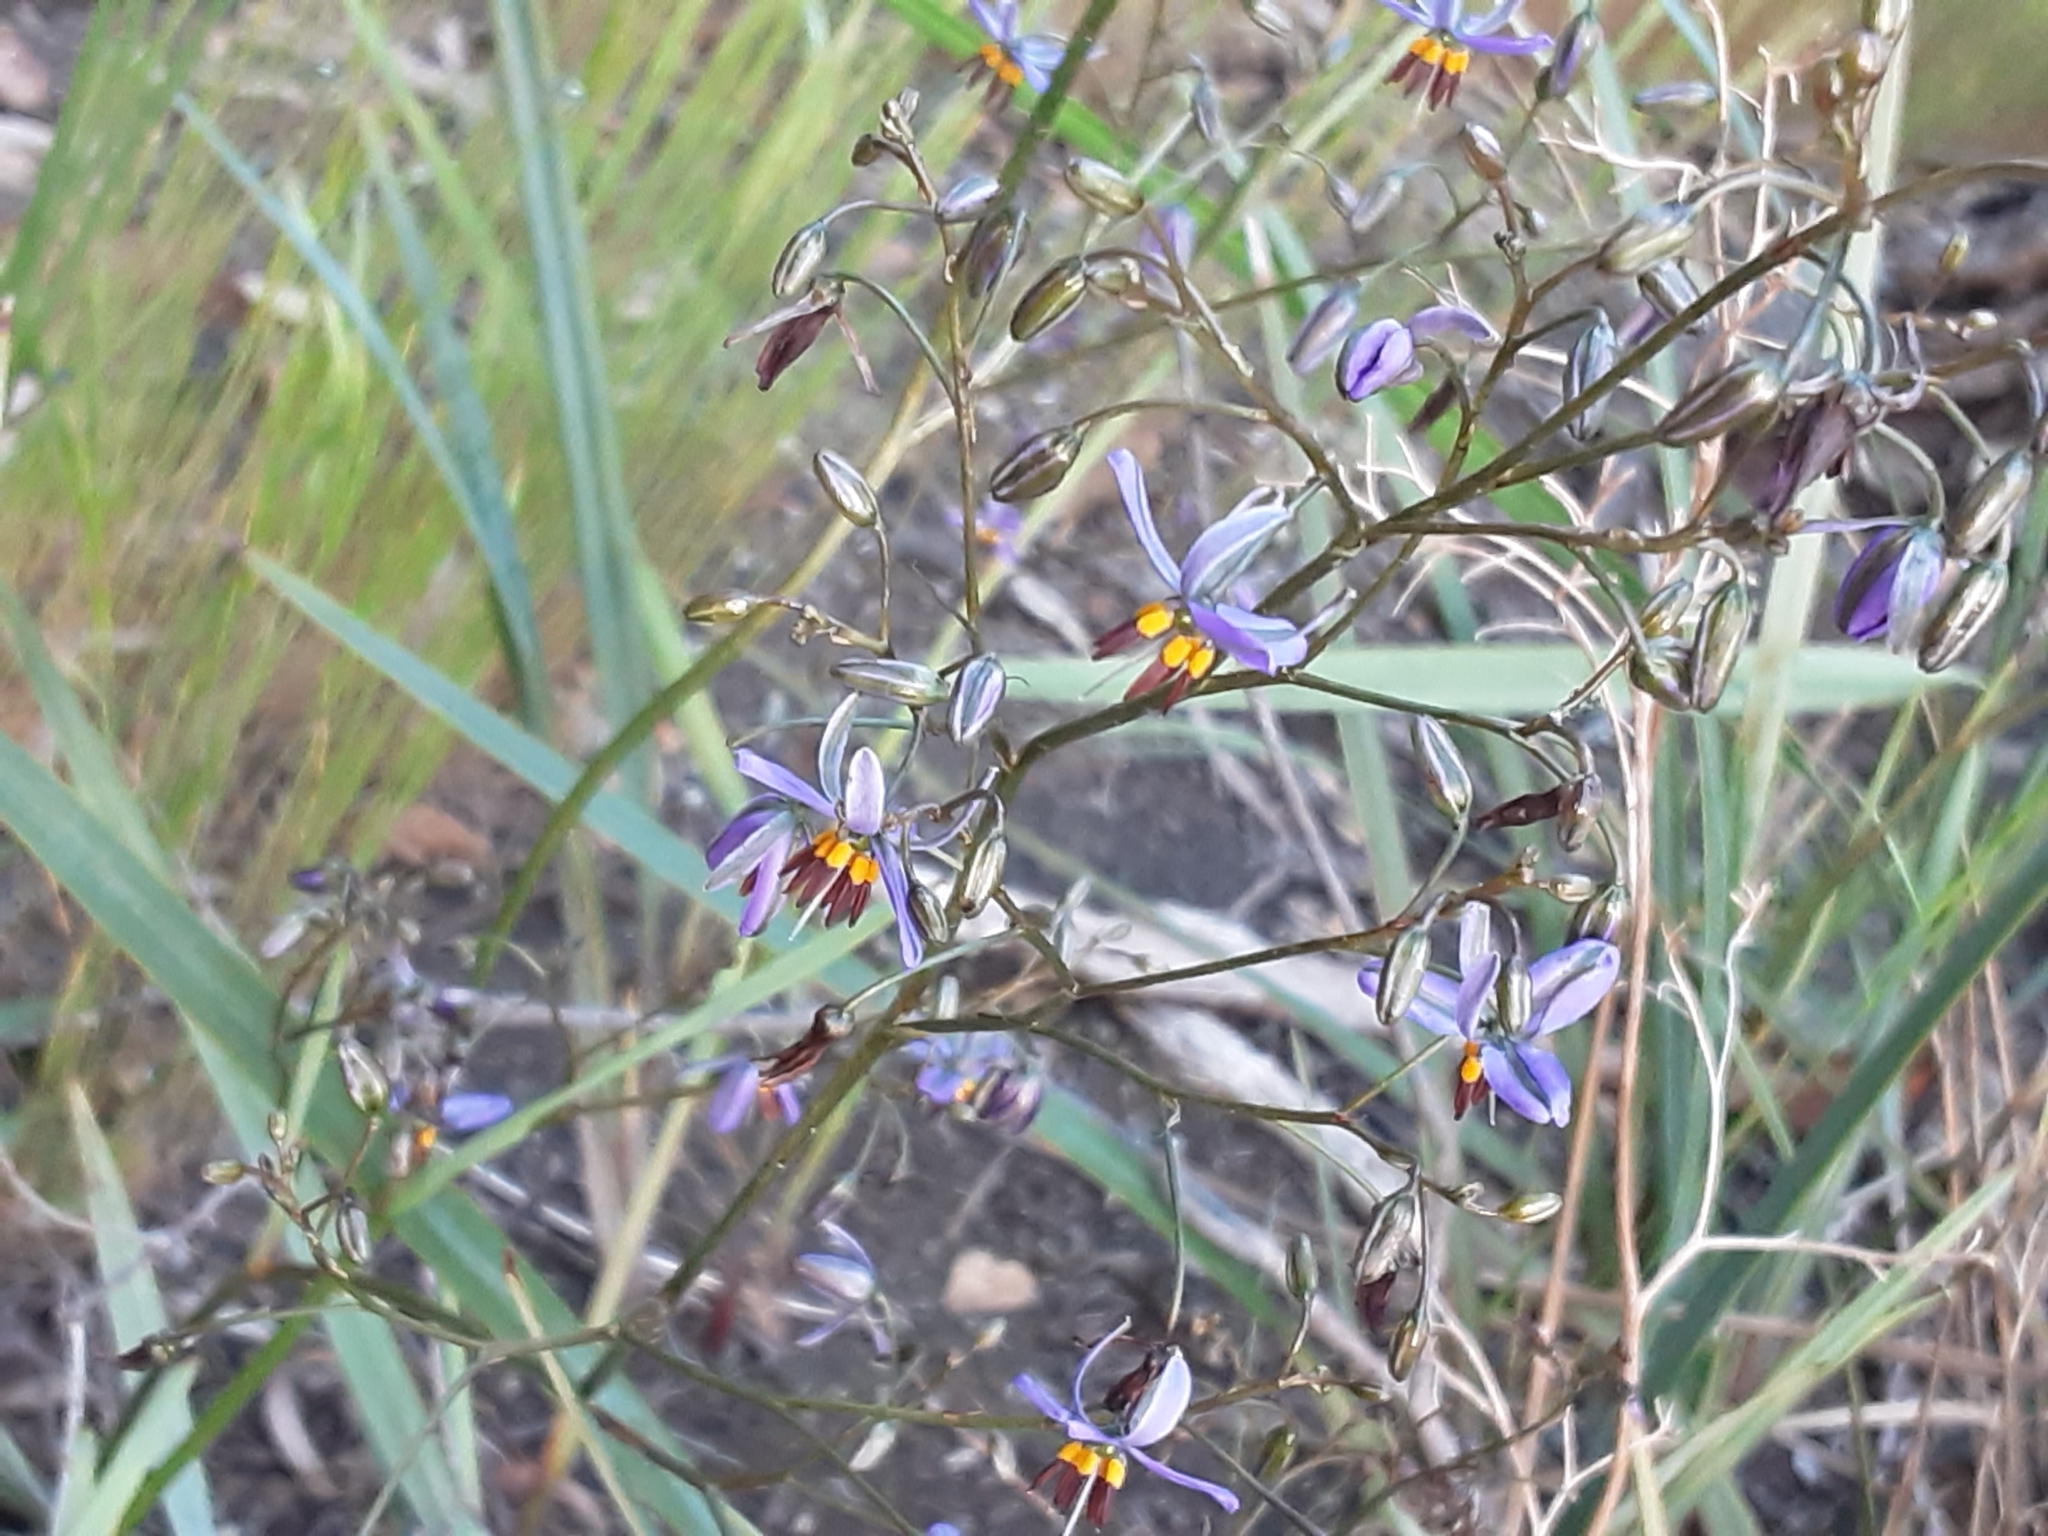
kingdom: Plantae
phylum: Tracheophyta
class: Liliopsida
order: Asparagales
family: Asphodelaceae
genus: Dianella
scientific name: Dianella revoluta
